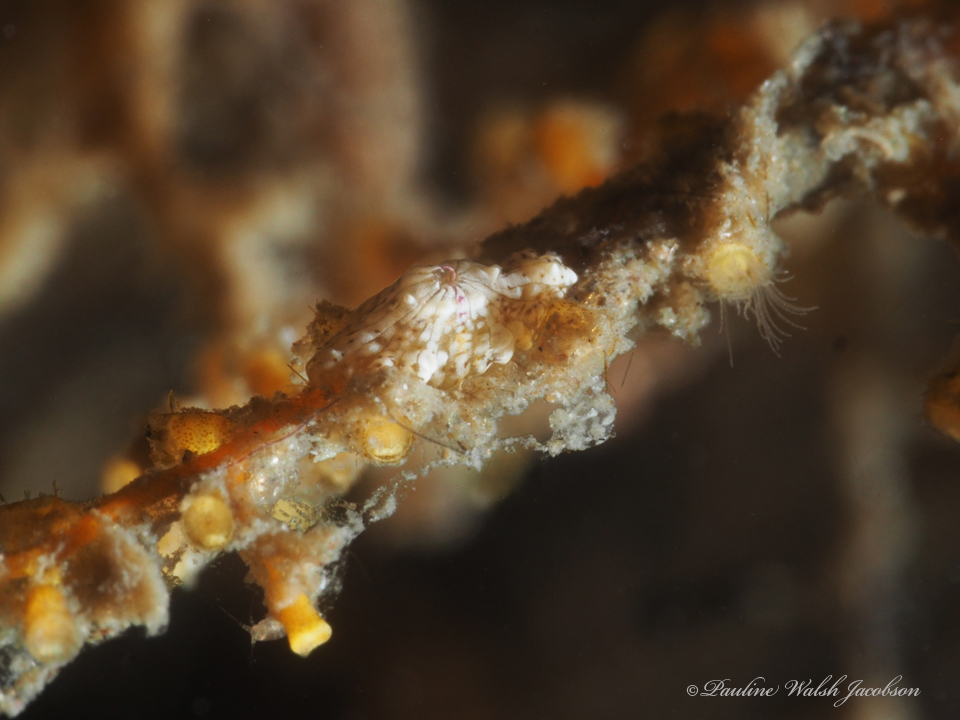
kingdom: Animalia
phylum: Cnidaria
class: Anthozoa
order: Actiniaria
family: Boloceroididae
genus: Bunodeopsis
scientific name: Bunodeopsis globulifera
